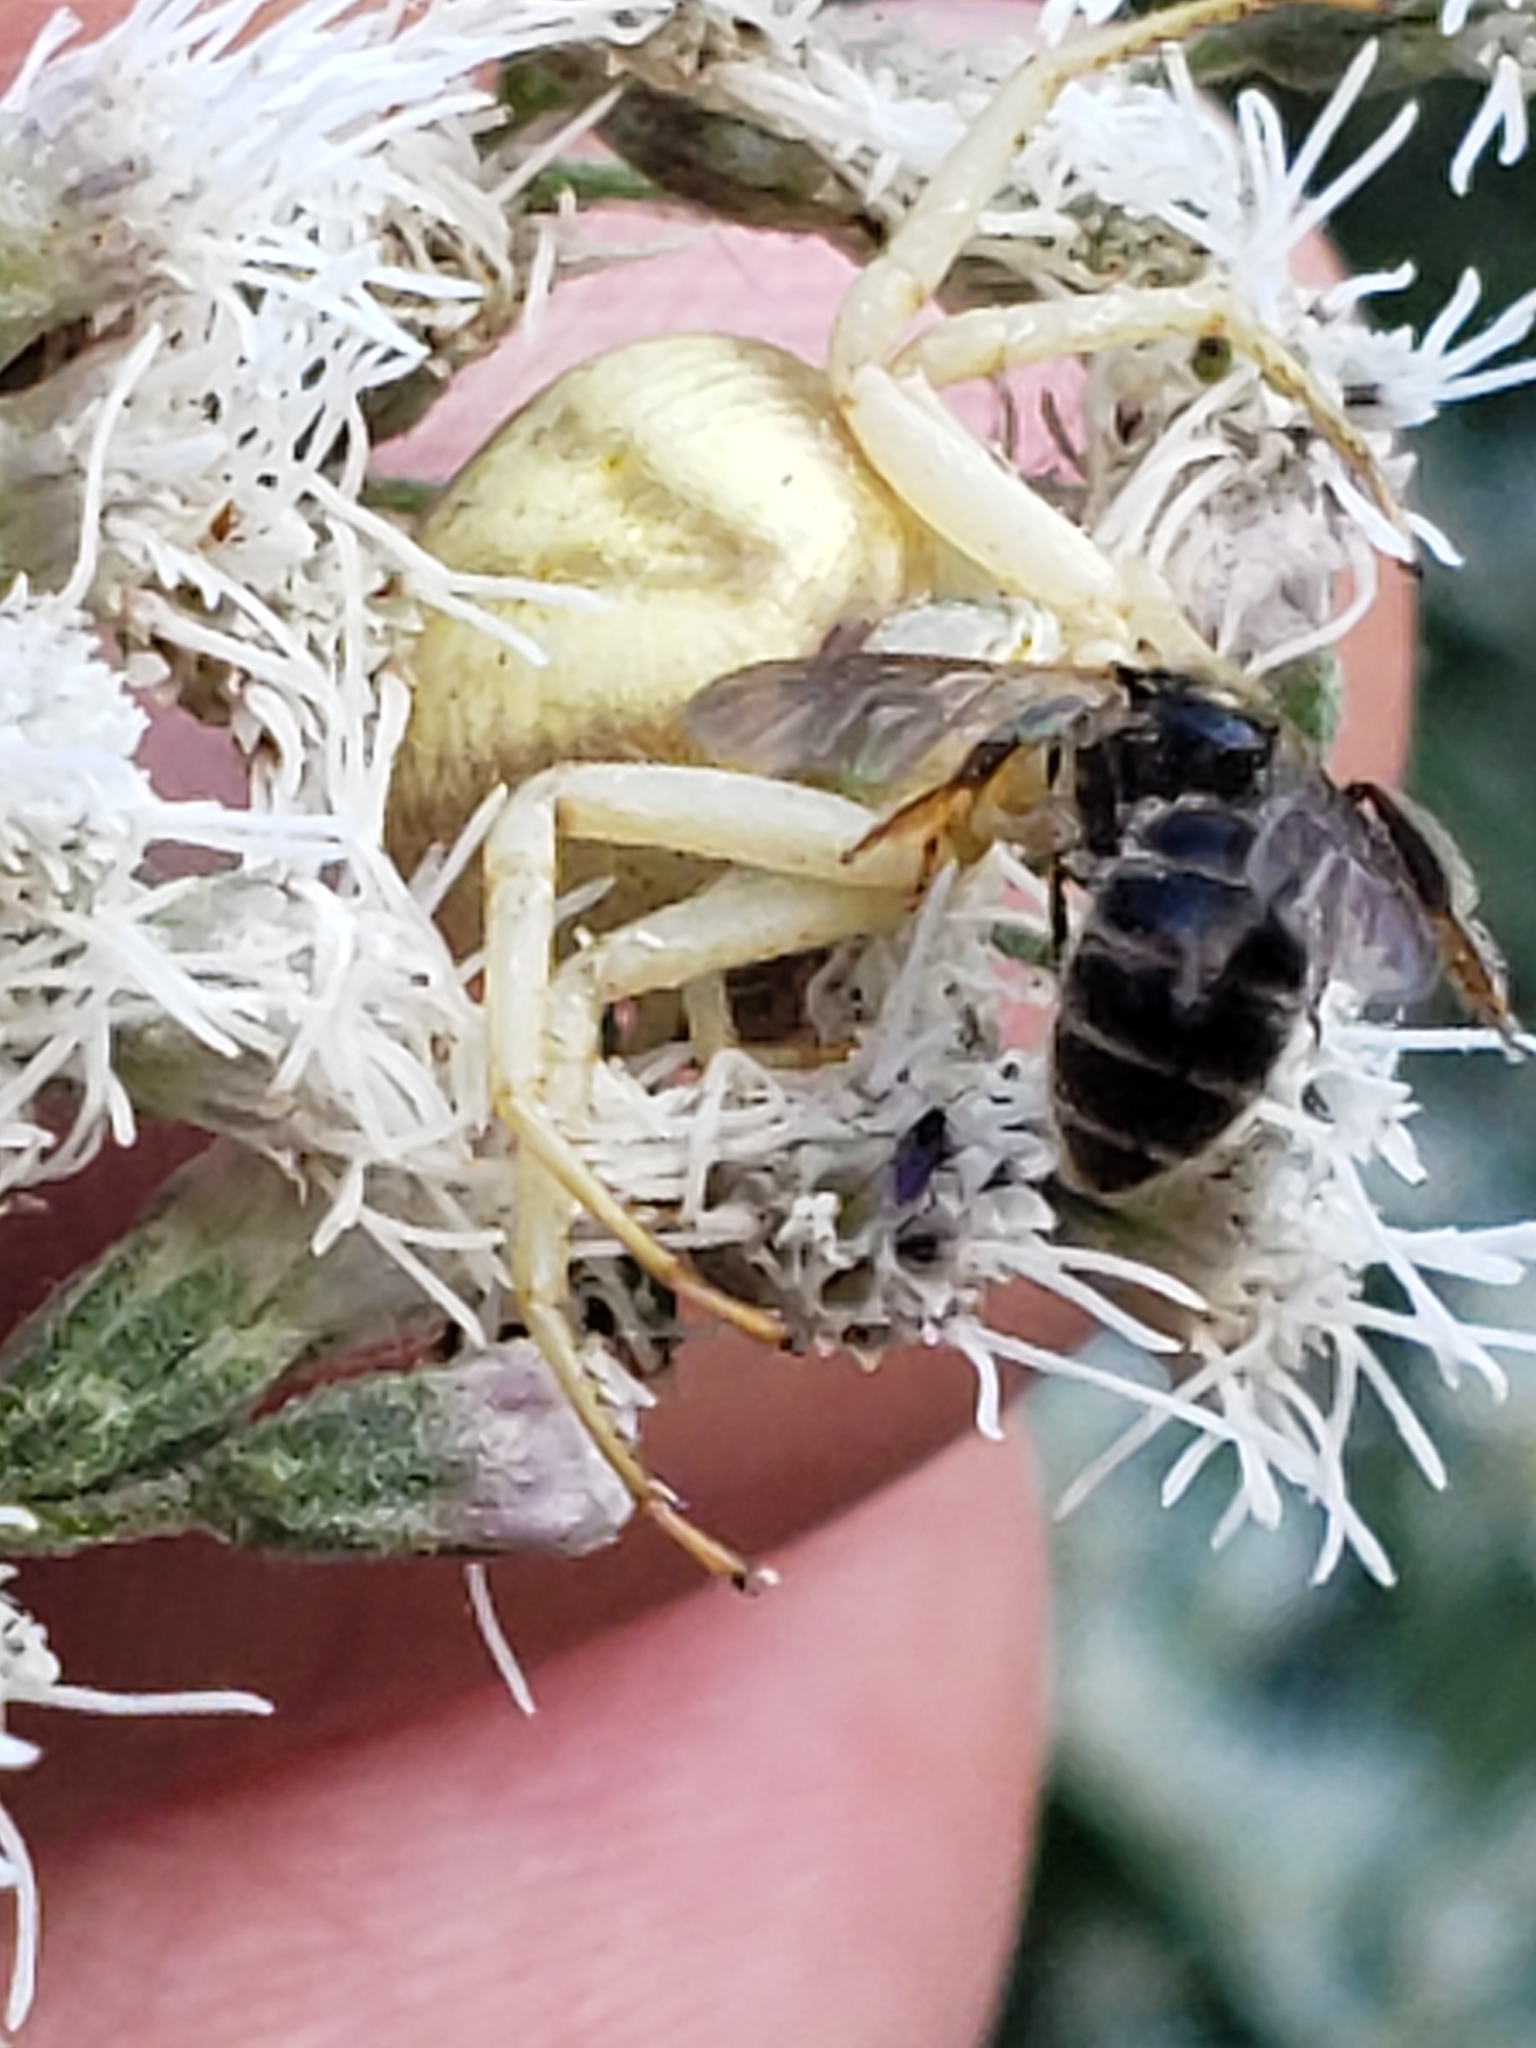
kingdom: Animalia
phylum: Arthropoda
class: Arachnida
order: Araneae
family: Thomisidae
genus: Misumenoides
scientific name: Misumenoides formosipes
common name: White-banded crab spider
